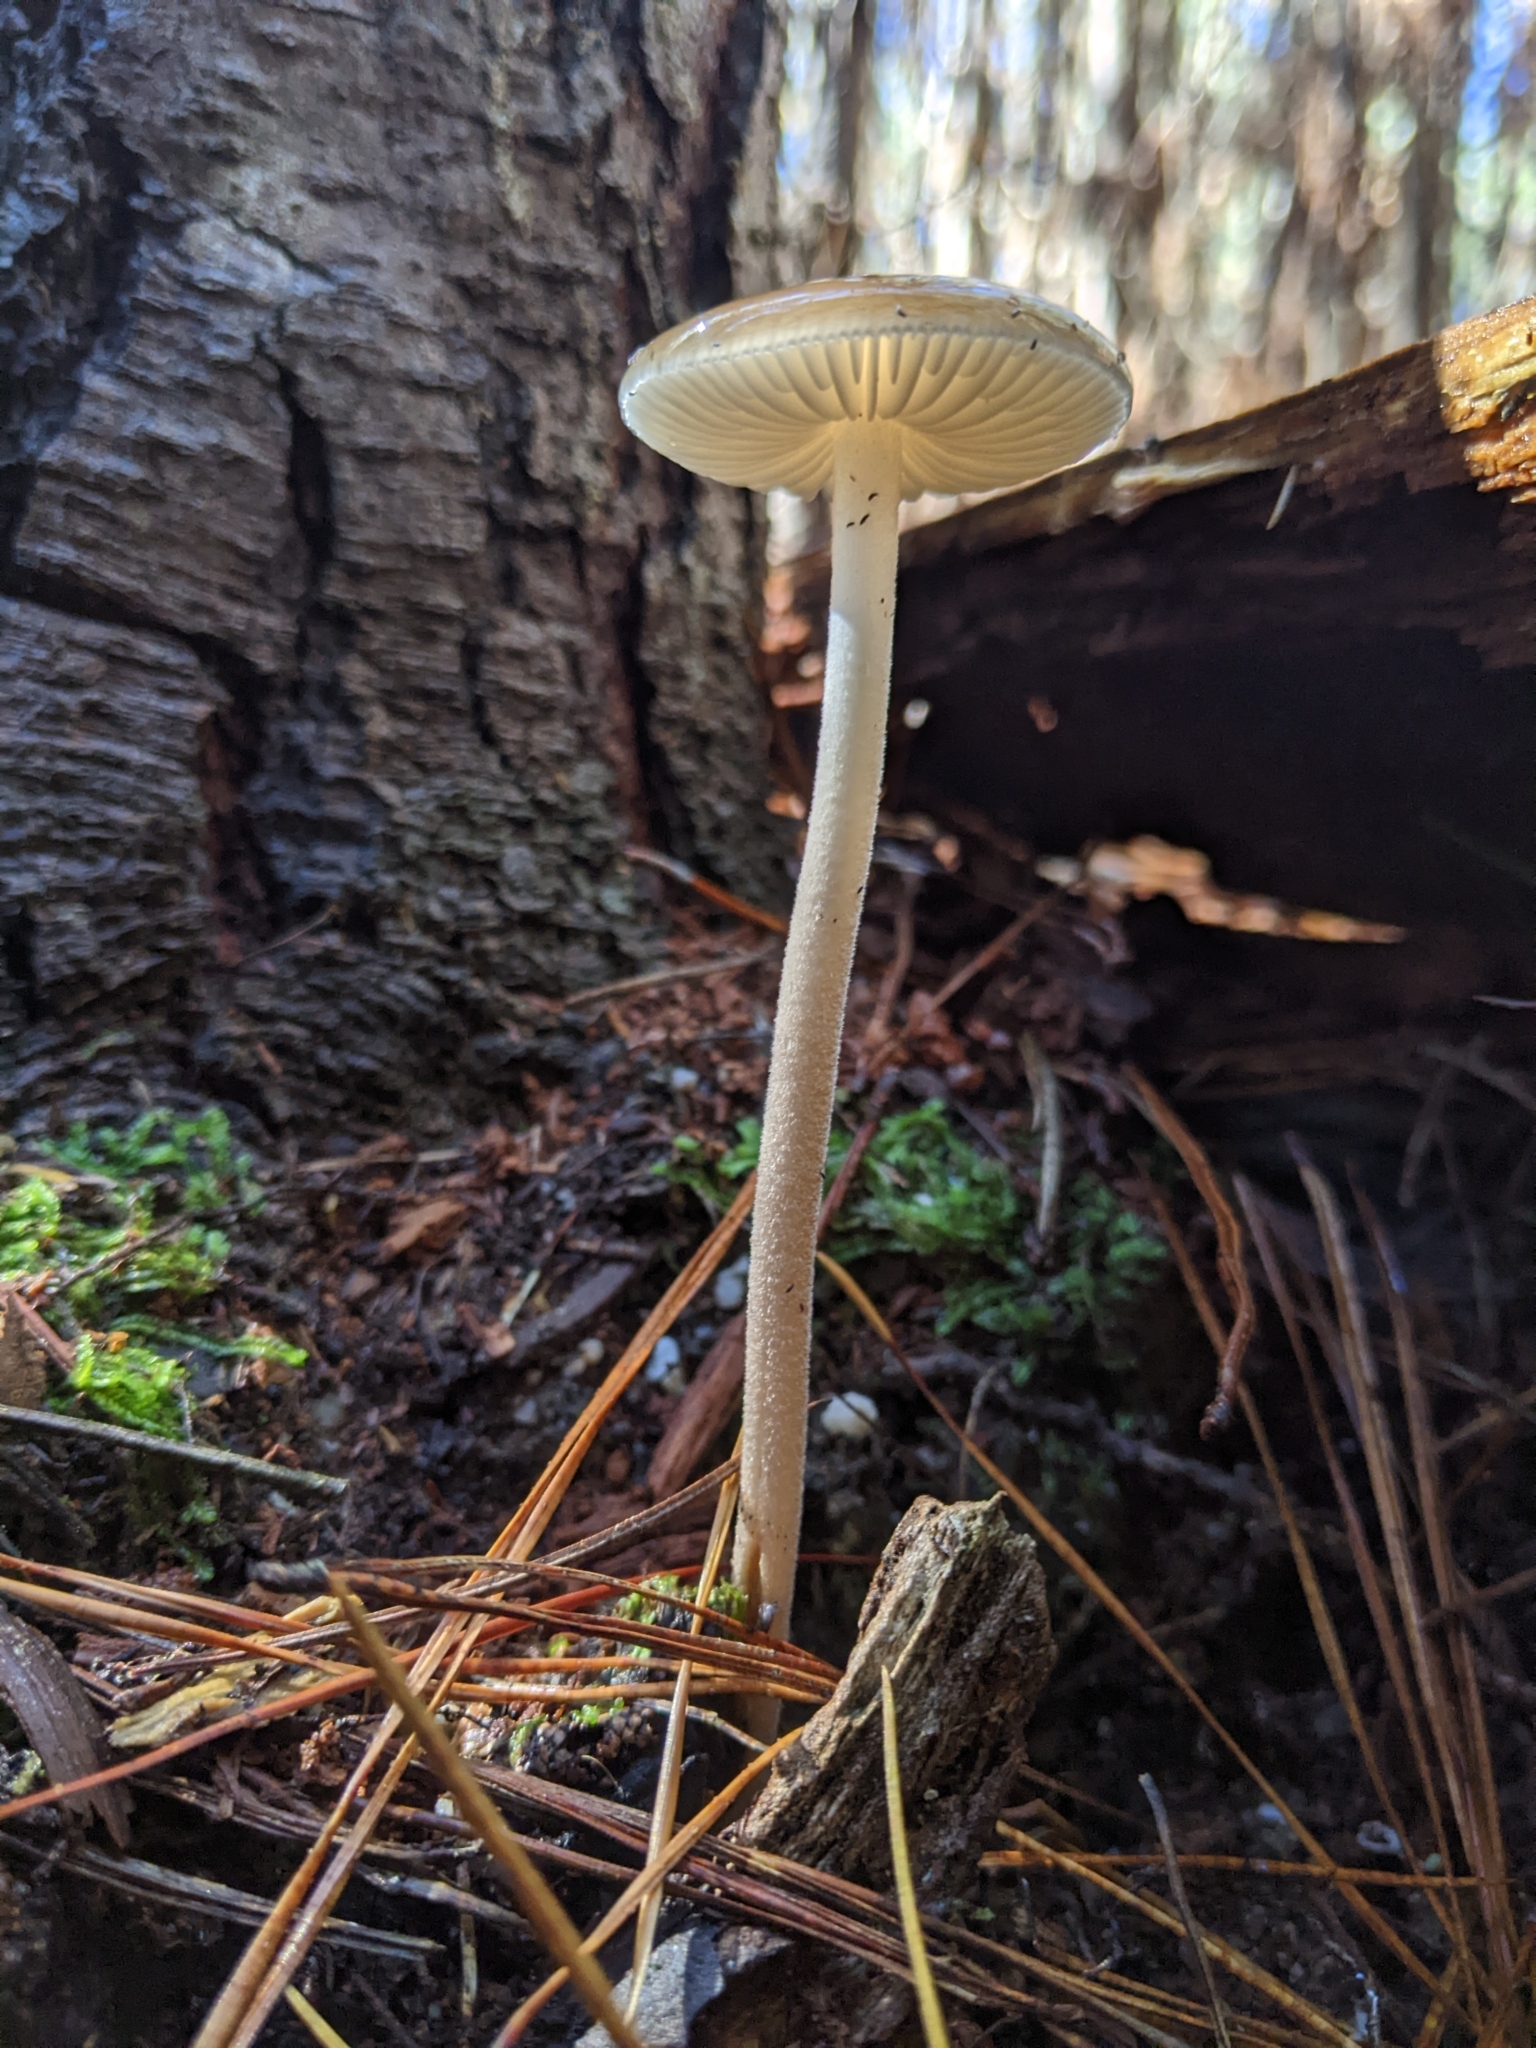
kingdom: Fungi
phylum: Basidiomycota
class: Agaricomycetes
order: Agaricales
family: Physalacriaceae
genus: Hymenopellis
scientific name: Hymenopellis gigaspora
